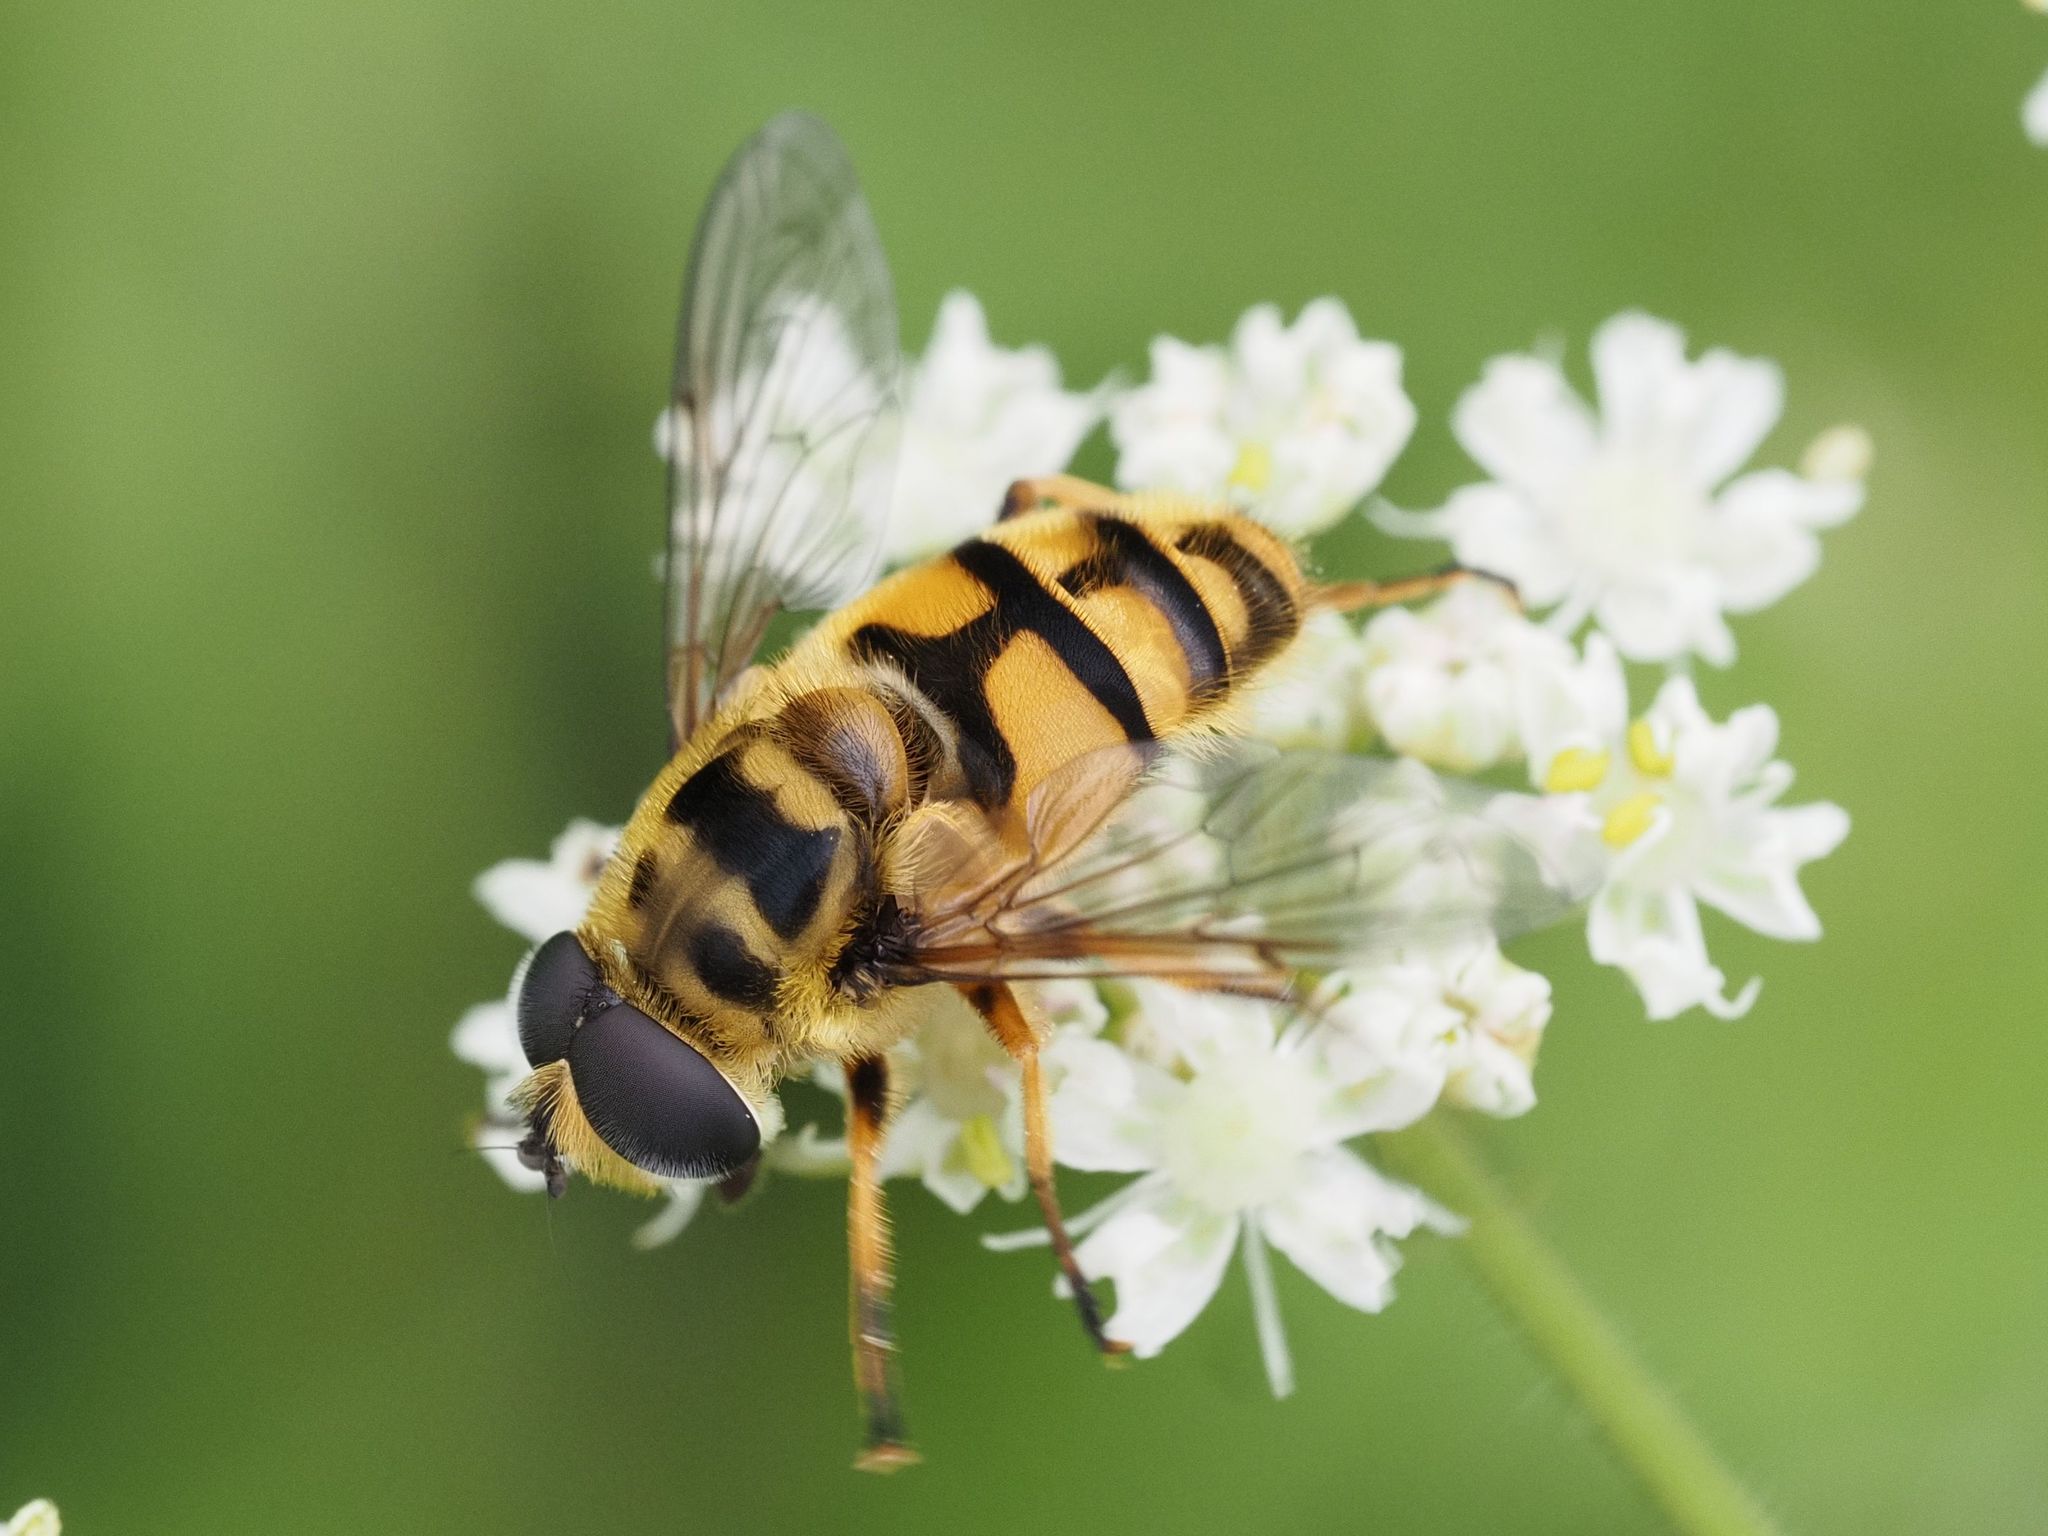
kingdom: Animalia
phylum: Arthropoda
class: Insecta
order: Diptera
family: Syrphidae
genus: Myathropa
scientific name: Myathropa florea
